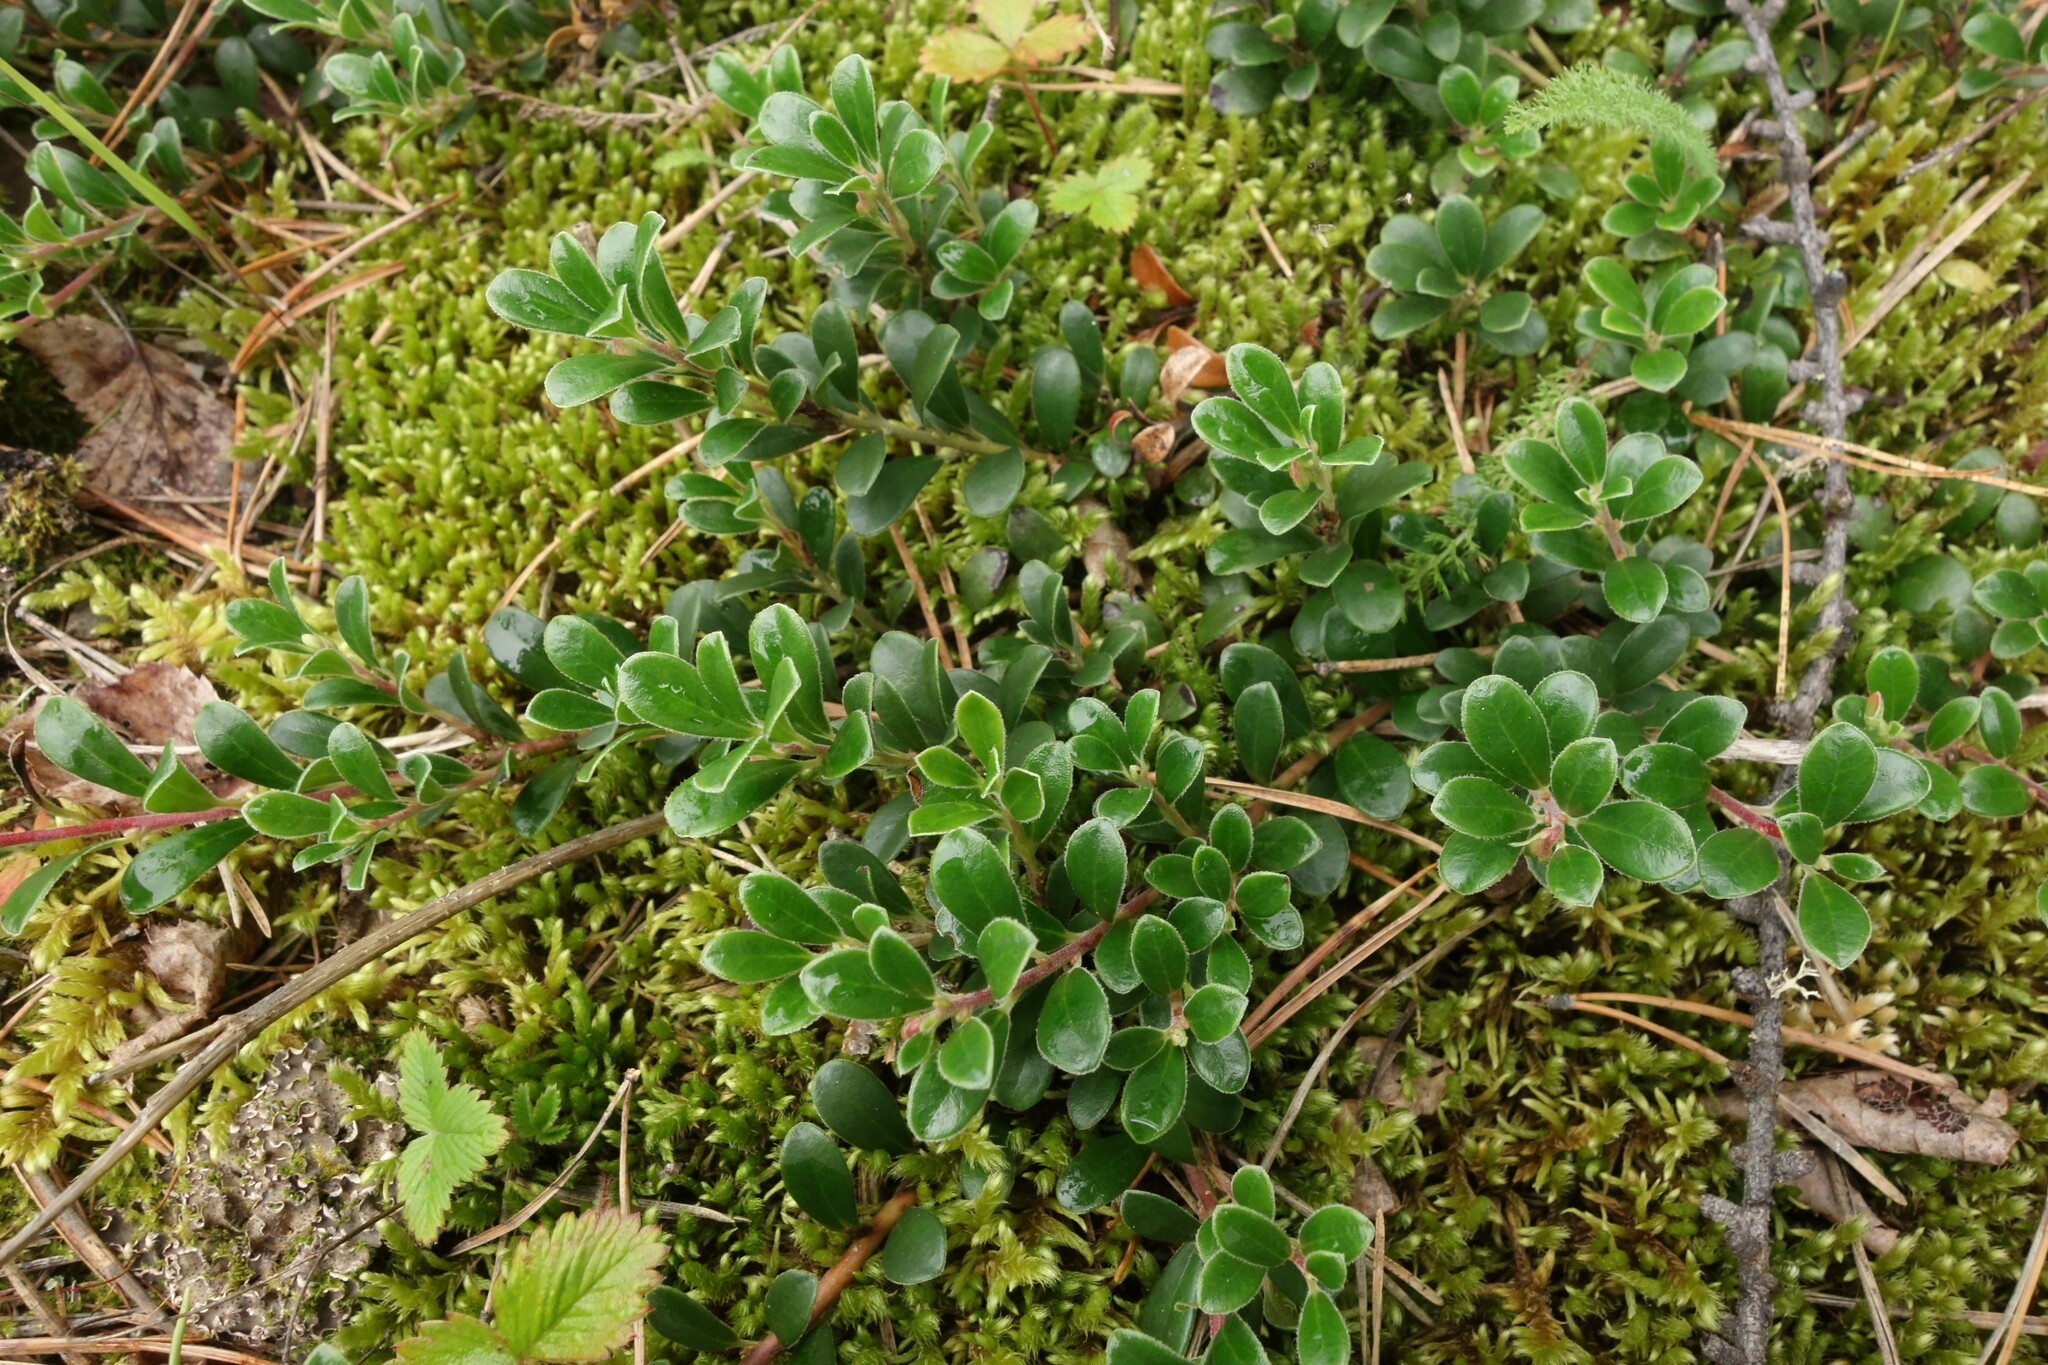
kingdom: Plantae
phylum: Tracheophyta
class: Magnoliopsida
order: Ericales
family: Ericaceae
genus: Arctostaphylos
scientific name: Arctostaphylos uva-ursi
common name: Bearberry
